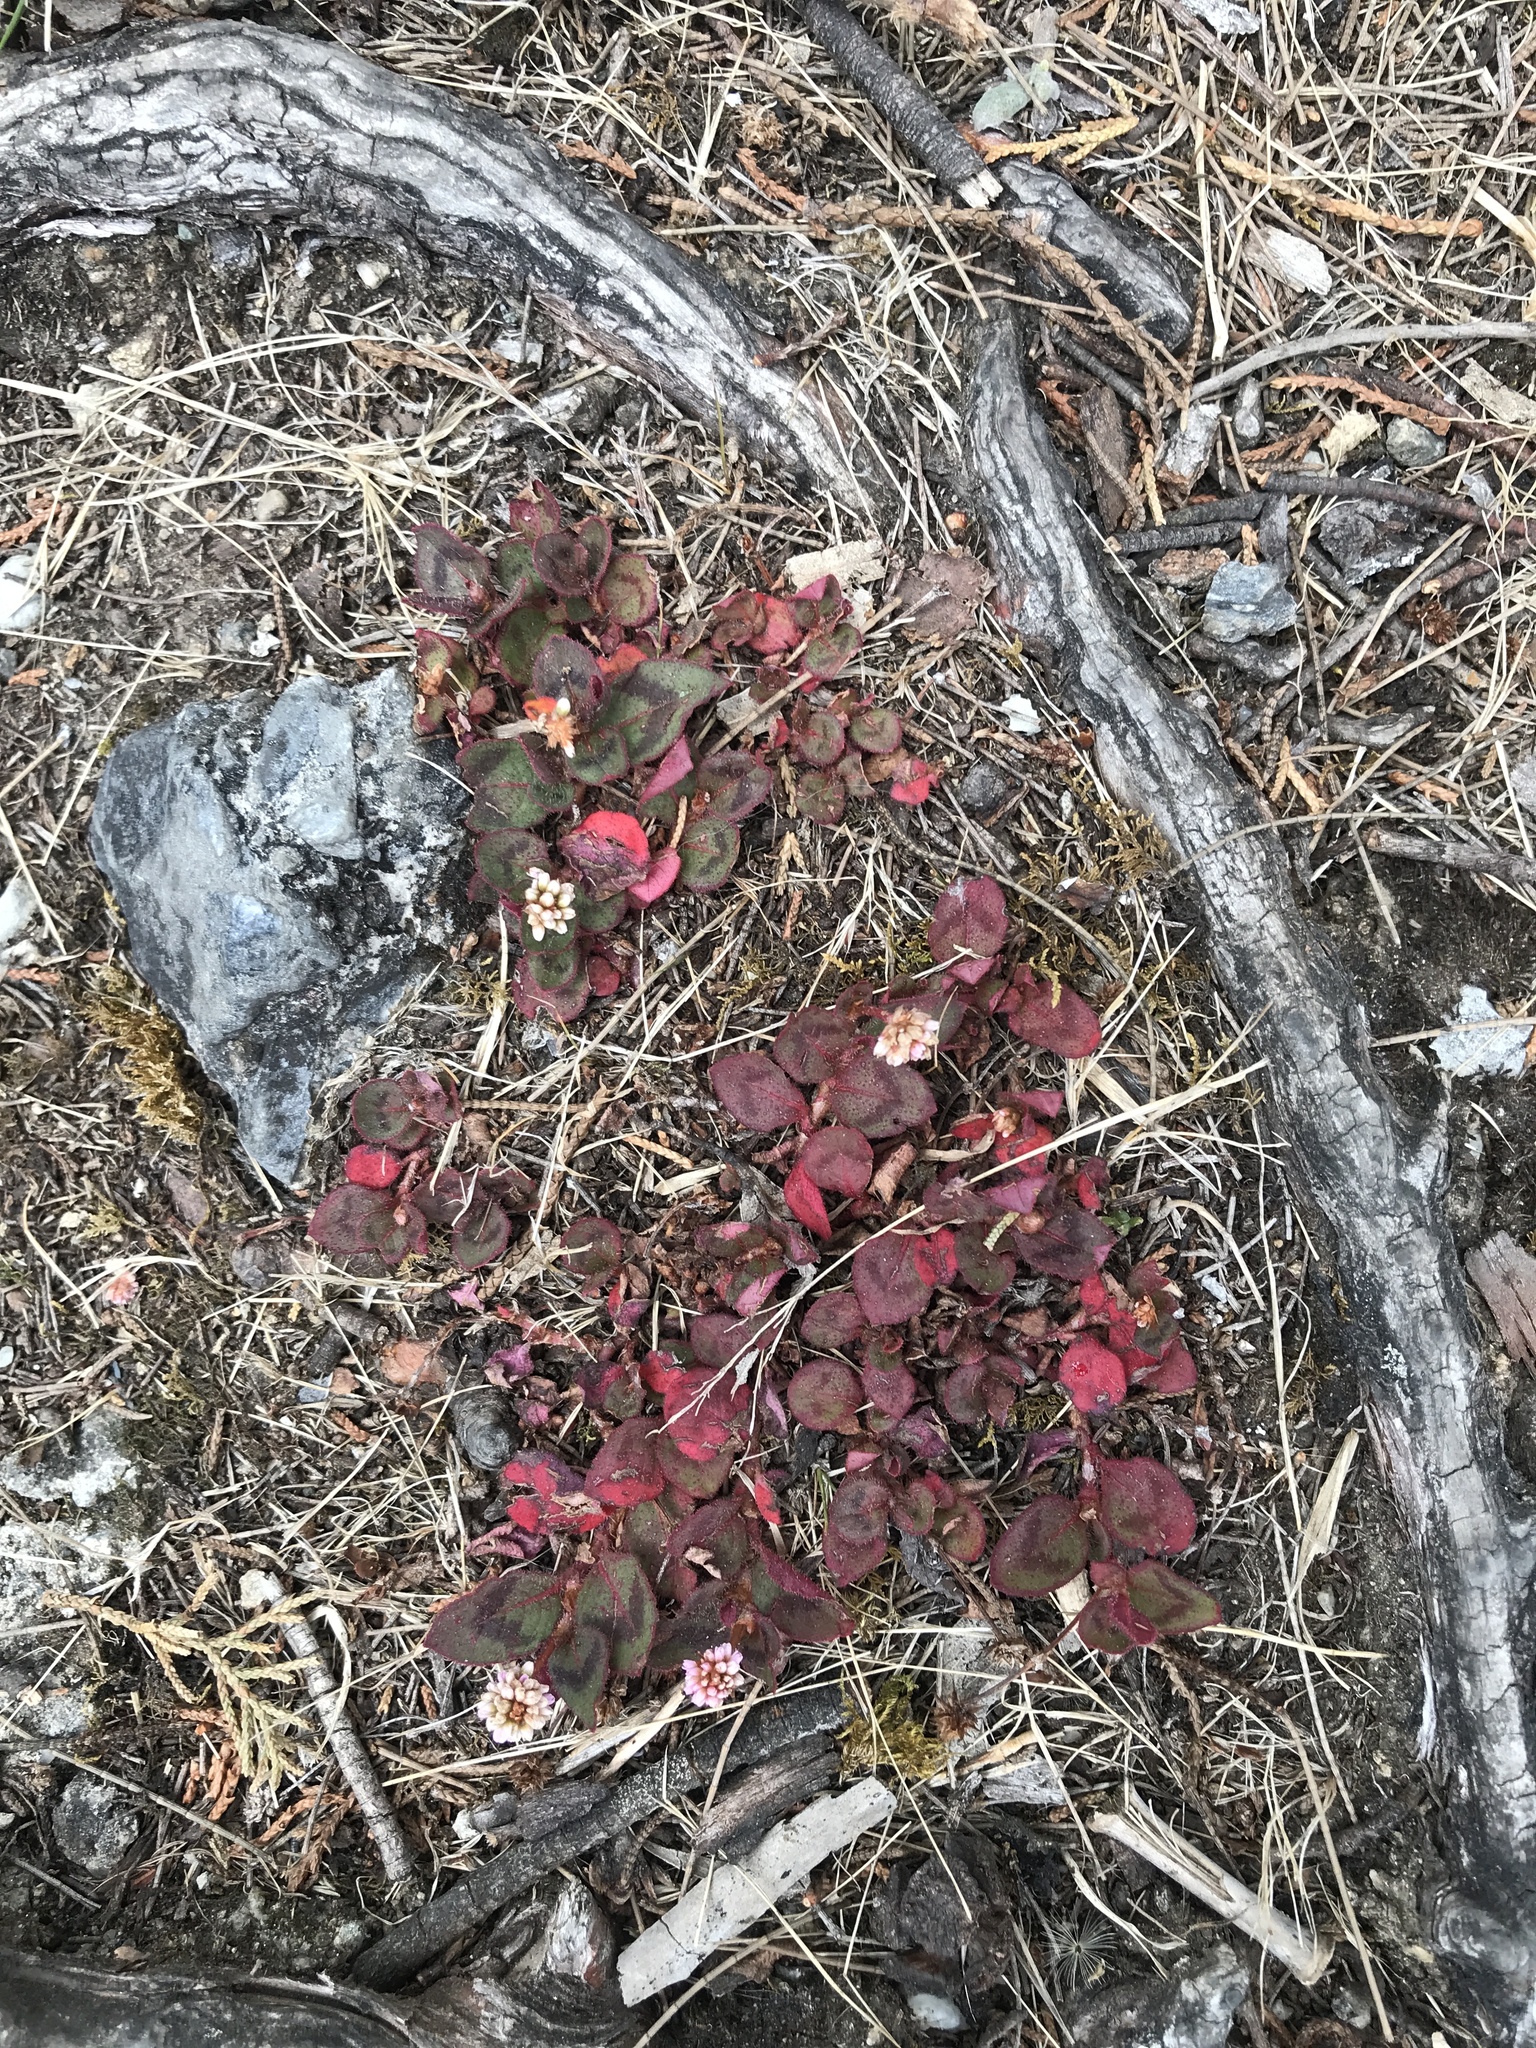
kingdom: Plantae
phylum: Tracheophyta
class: Magnoliopsida
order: Caryophyllales
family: Polygonaceae
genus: Persicaria
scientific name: Persicaria capitata
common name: Pinkhead smartweed
